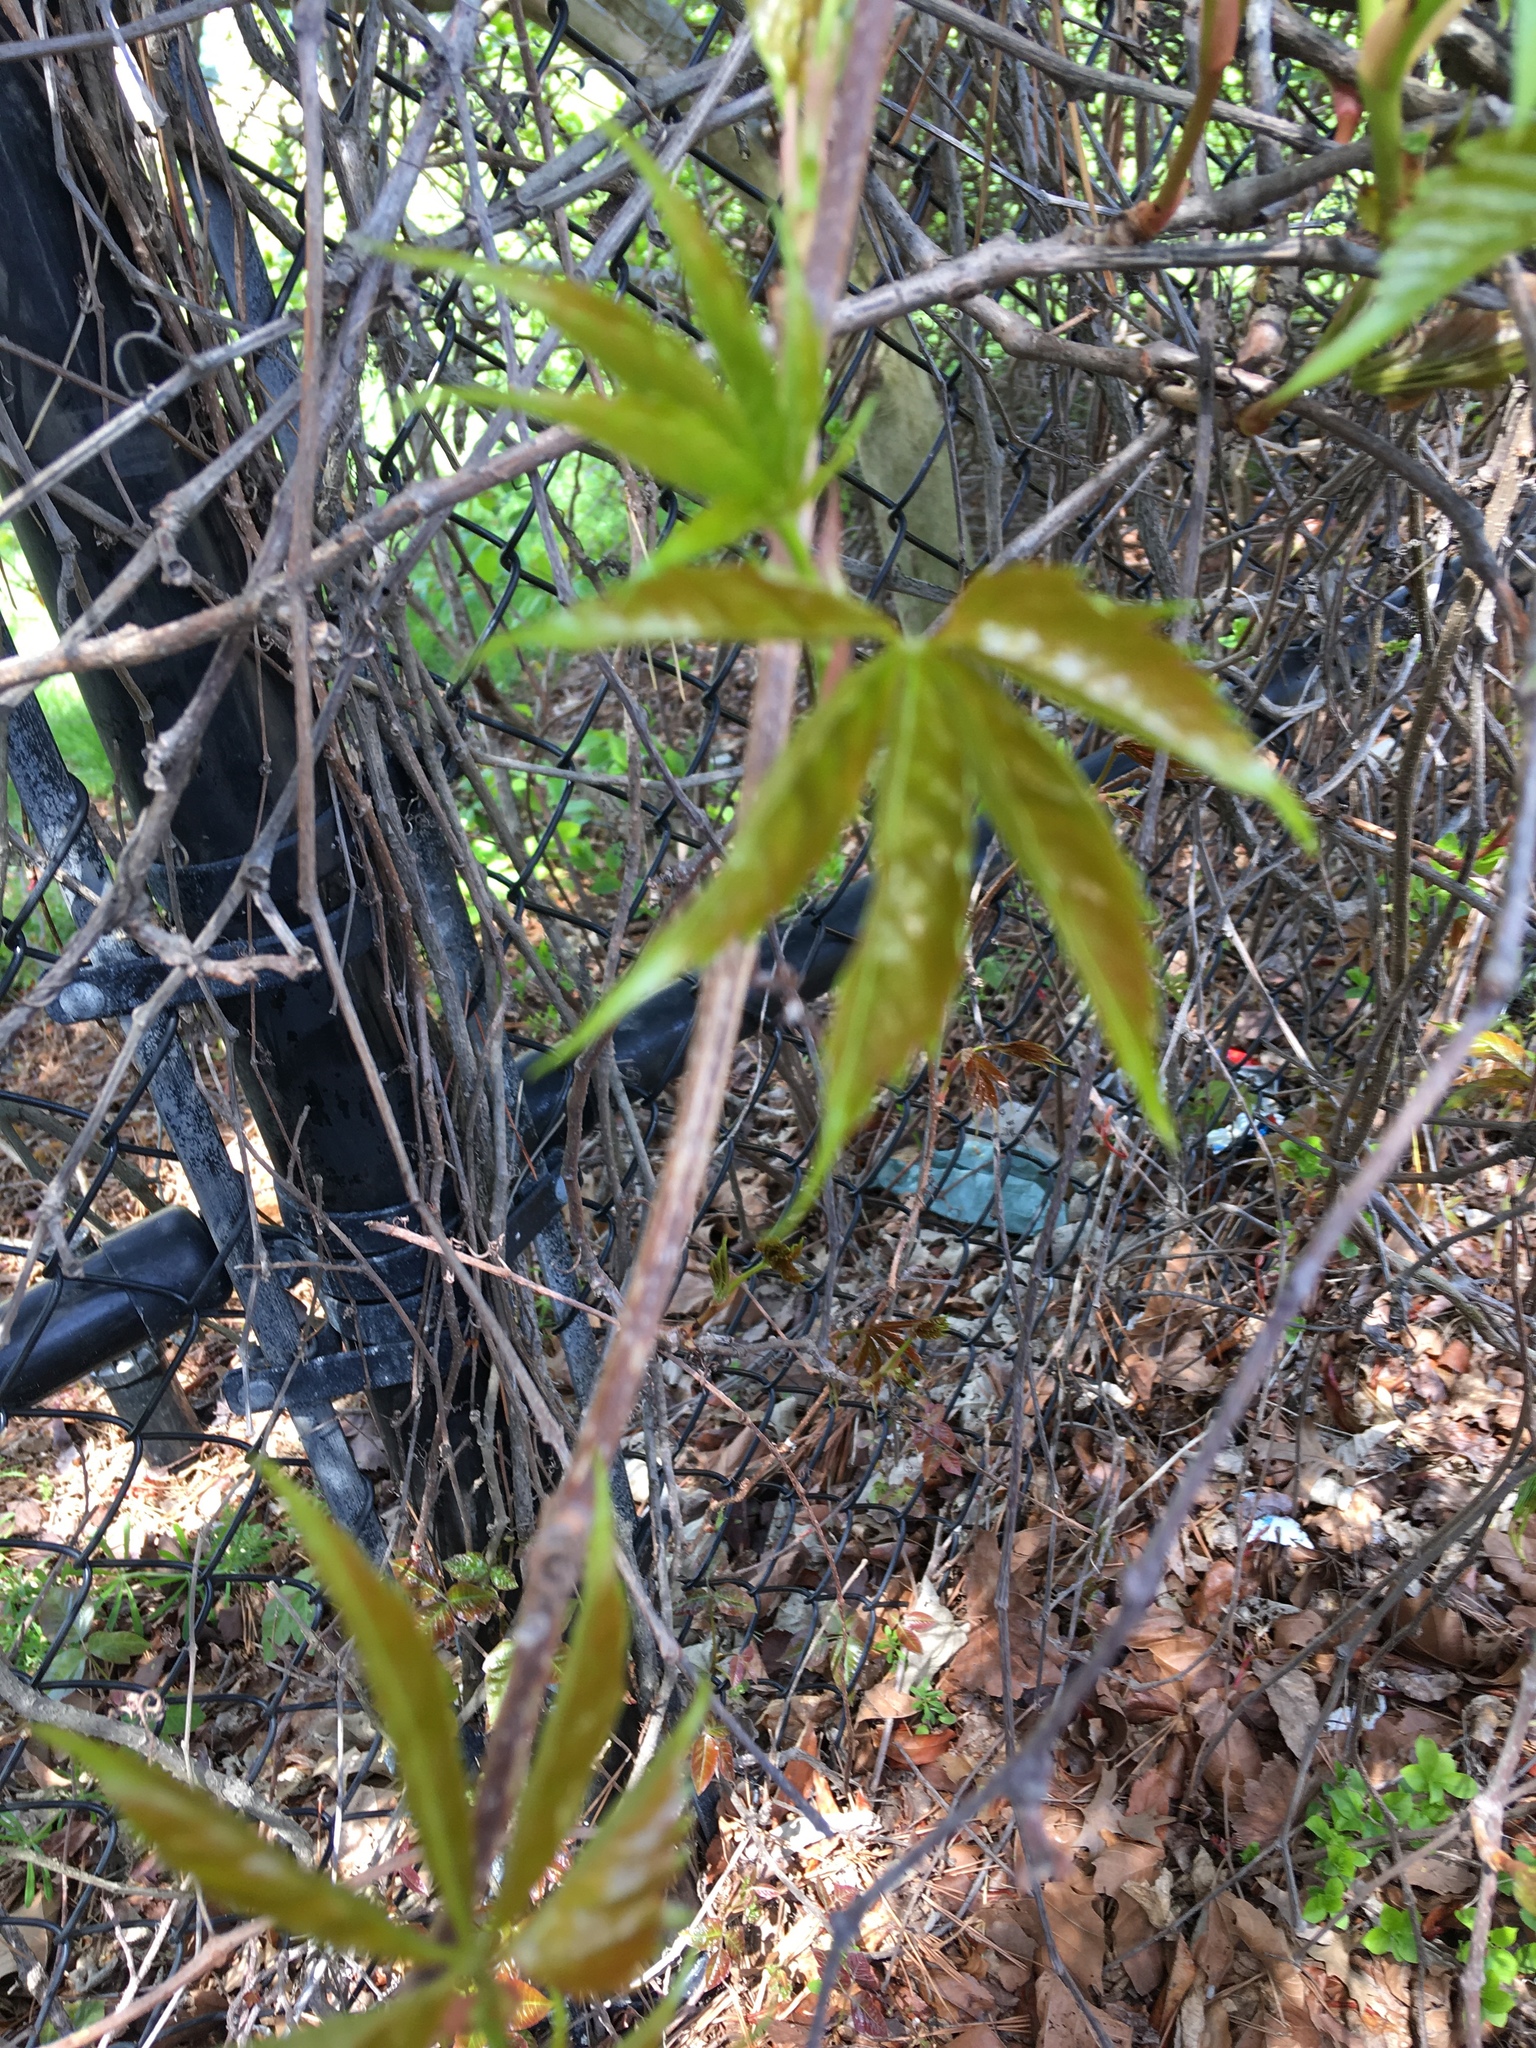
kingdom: Plantae
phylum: Tracheophyta
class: Magnoliopsida
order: Vitales
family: Vitaceae
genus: Parthenocissus
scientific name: Parthenocissus quinquefolia
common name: Virginia-creeper
